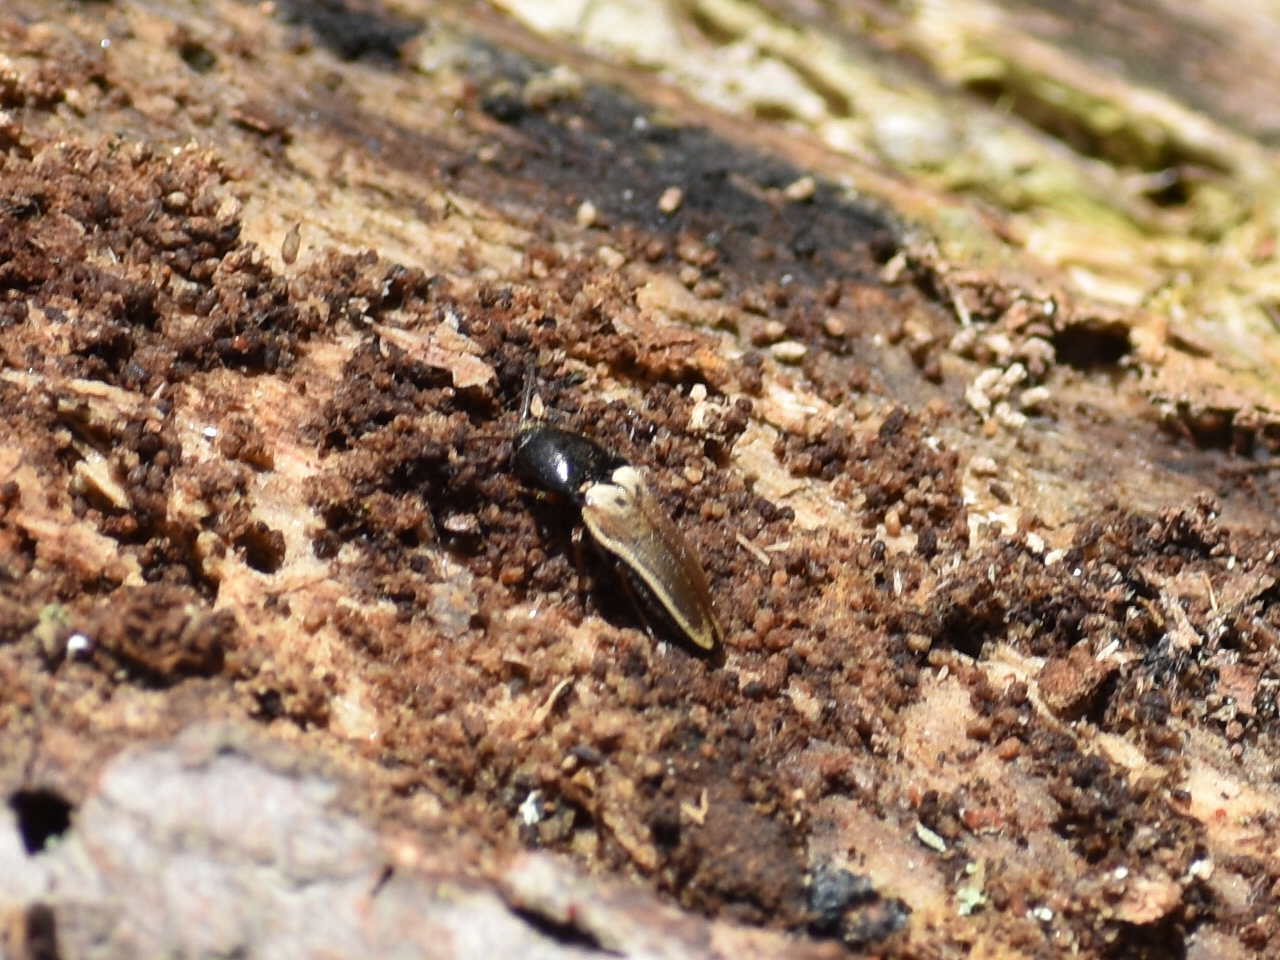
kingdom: Animalia
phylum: Arthropoda
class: Insecta
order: Coleoptera
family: Elateridae
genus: Ampedus
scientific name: Ampedus nigricollis
